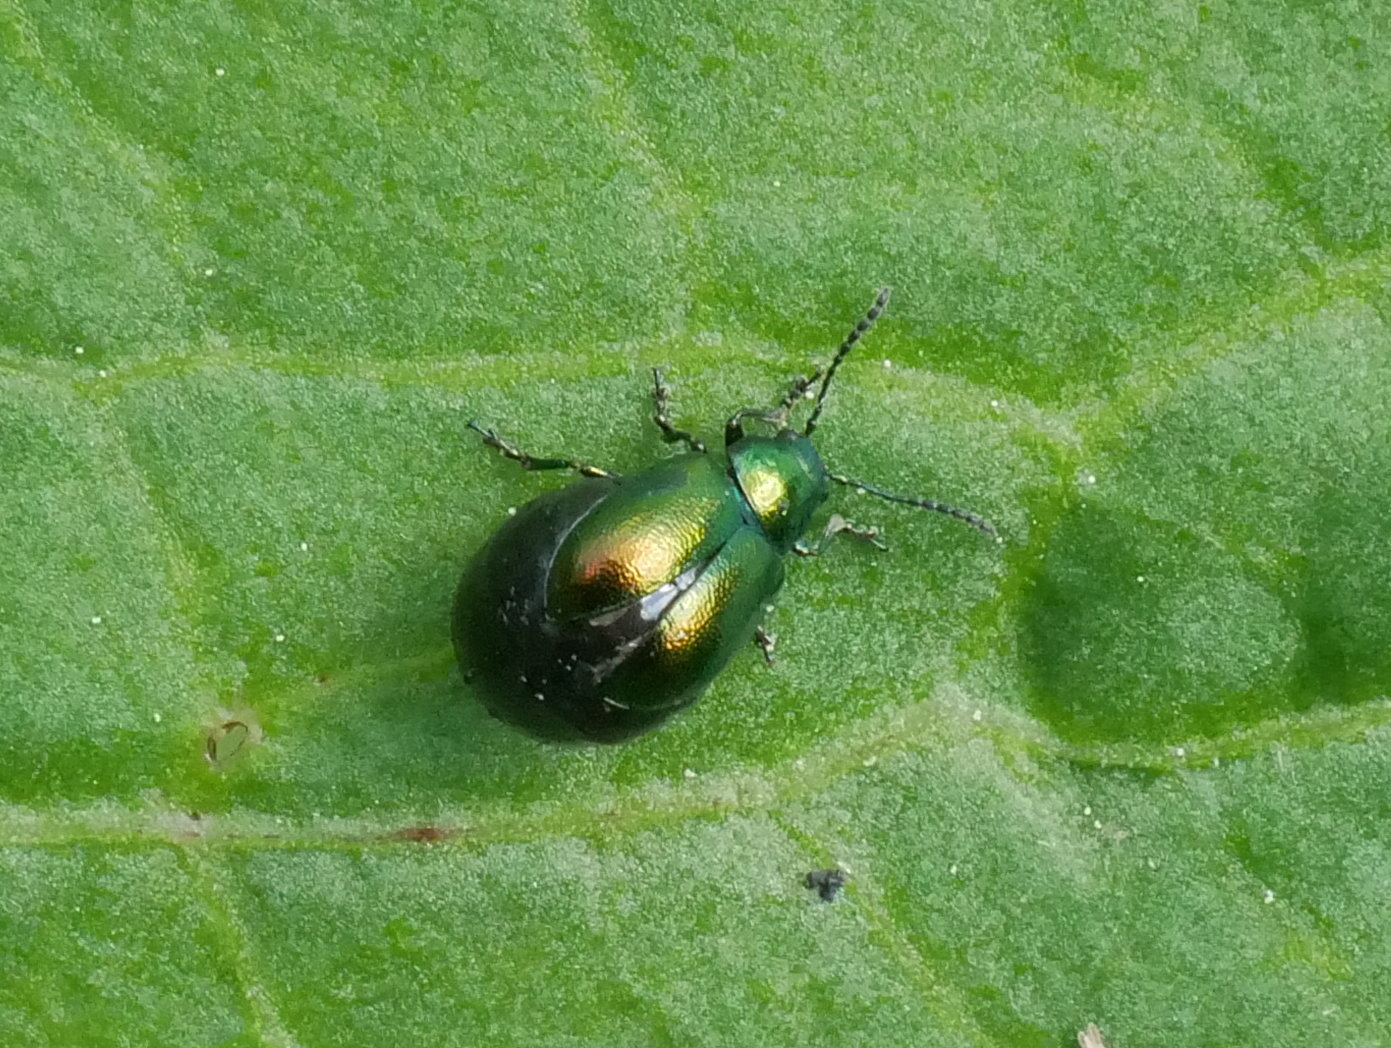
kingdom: Animalia
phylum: Arthropoda
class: Insecta
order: Coleoptera
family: Chrysomelidae
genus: Gastrophysa
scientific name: Gastrophysa viridula
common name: Green dock beetle
